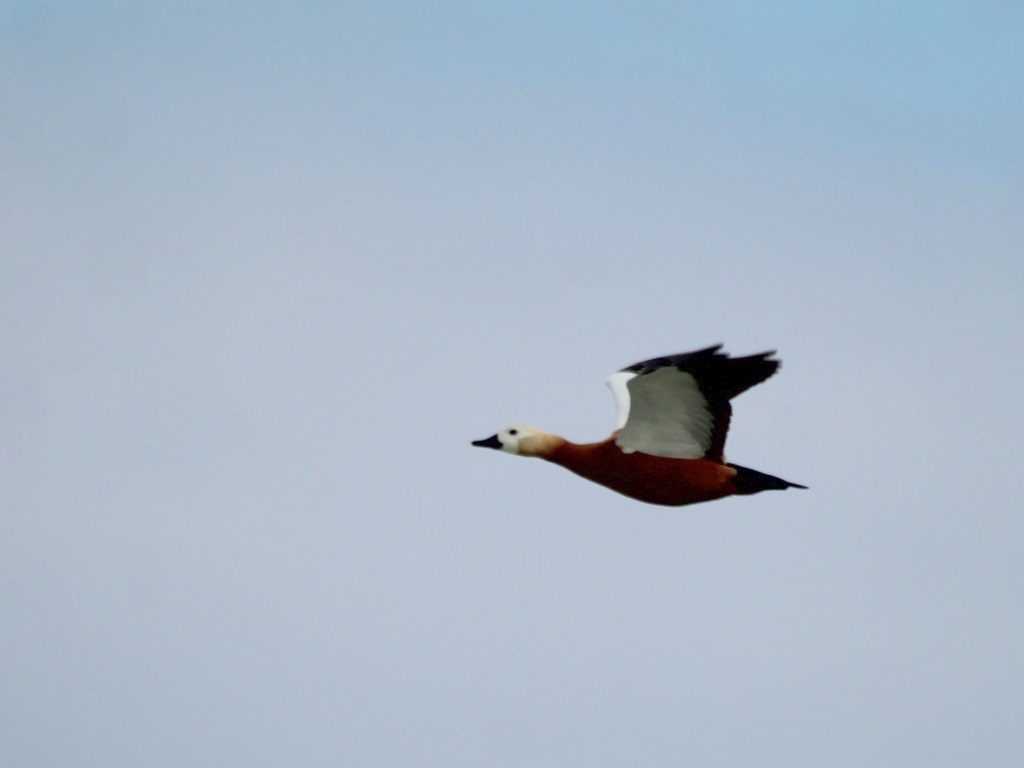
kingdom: Animalia
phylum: Chordata
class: Aves
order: Anseriformes
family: Anatidae
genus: Tadorna
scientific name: Tadorna ferruginea
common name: Ruddy shelduck
